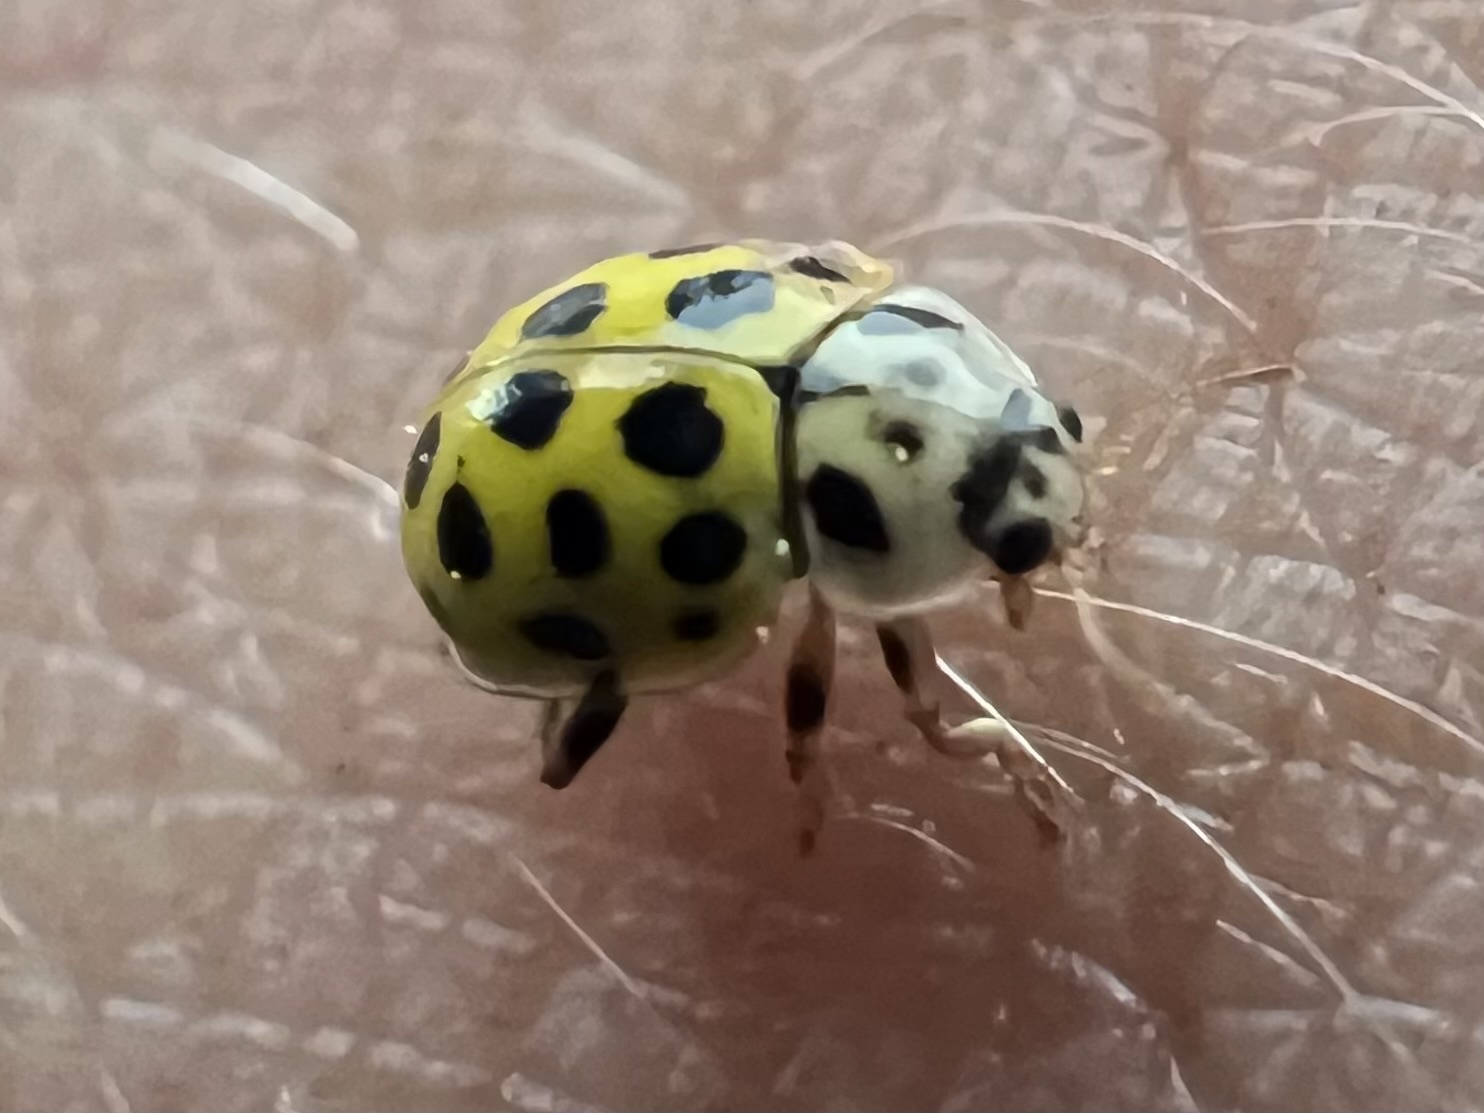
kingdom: Animalia
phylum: Arthropoda
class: Insecta
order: Coleoptera
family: Coccinellidae
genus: Psyllobora
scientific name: Psyllobora vigintiduopunctata
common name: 22-spot ladybird
